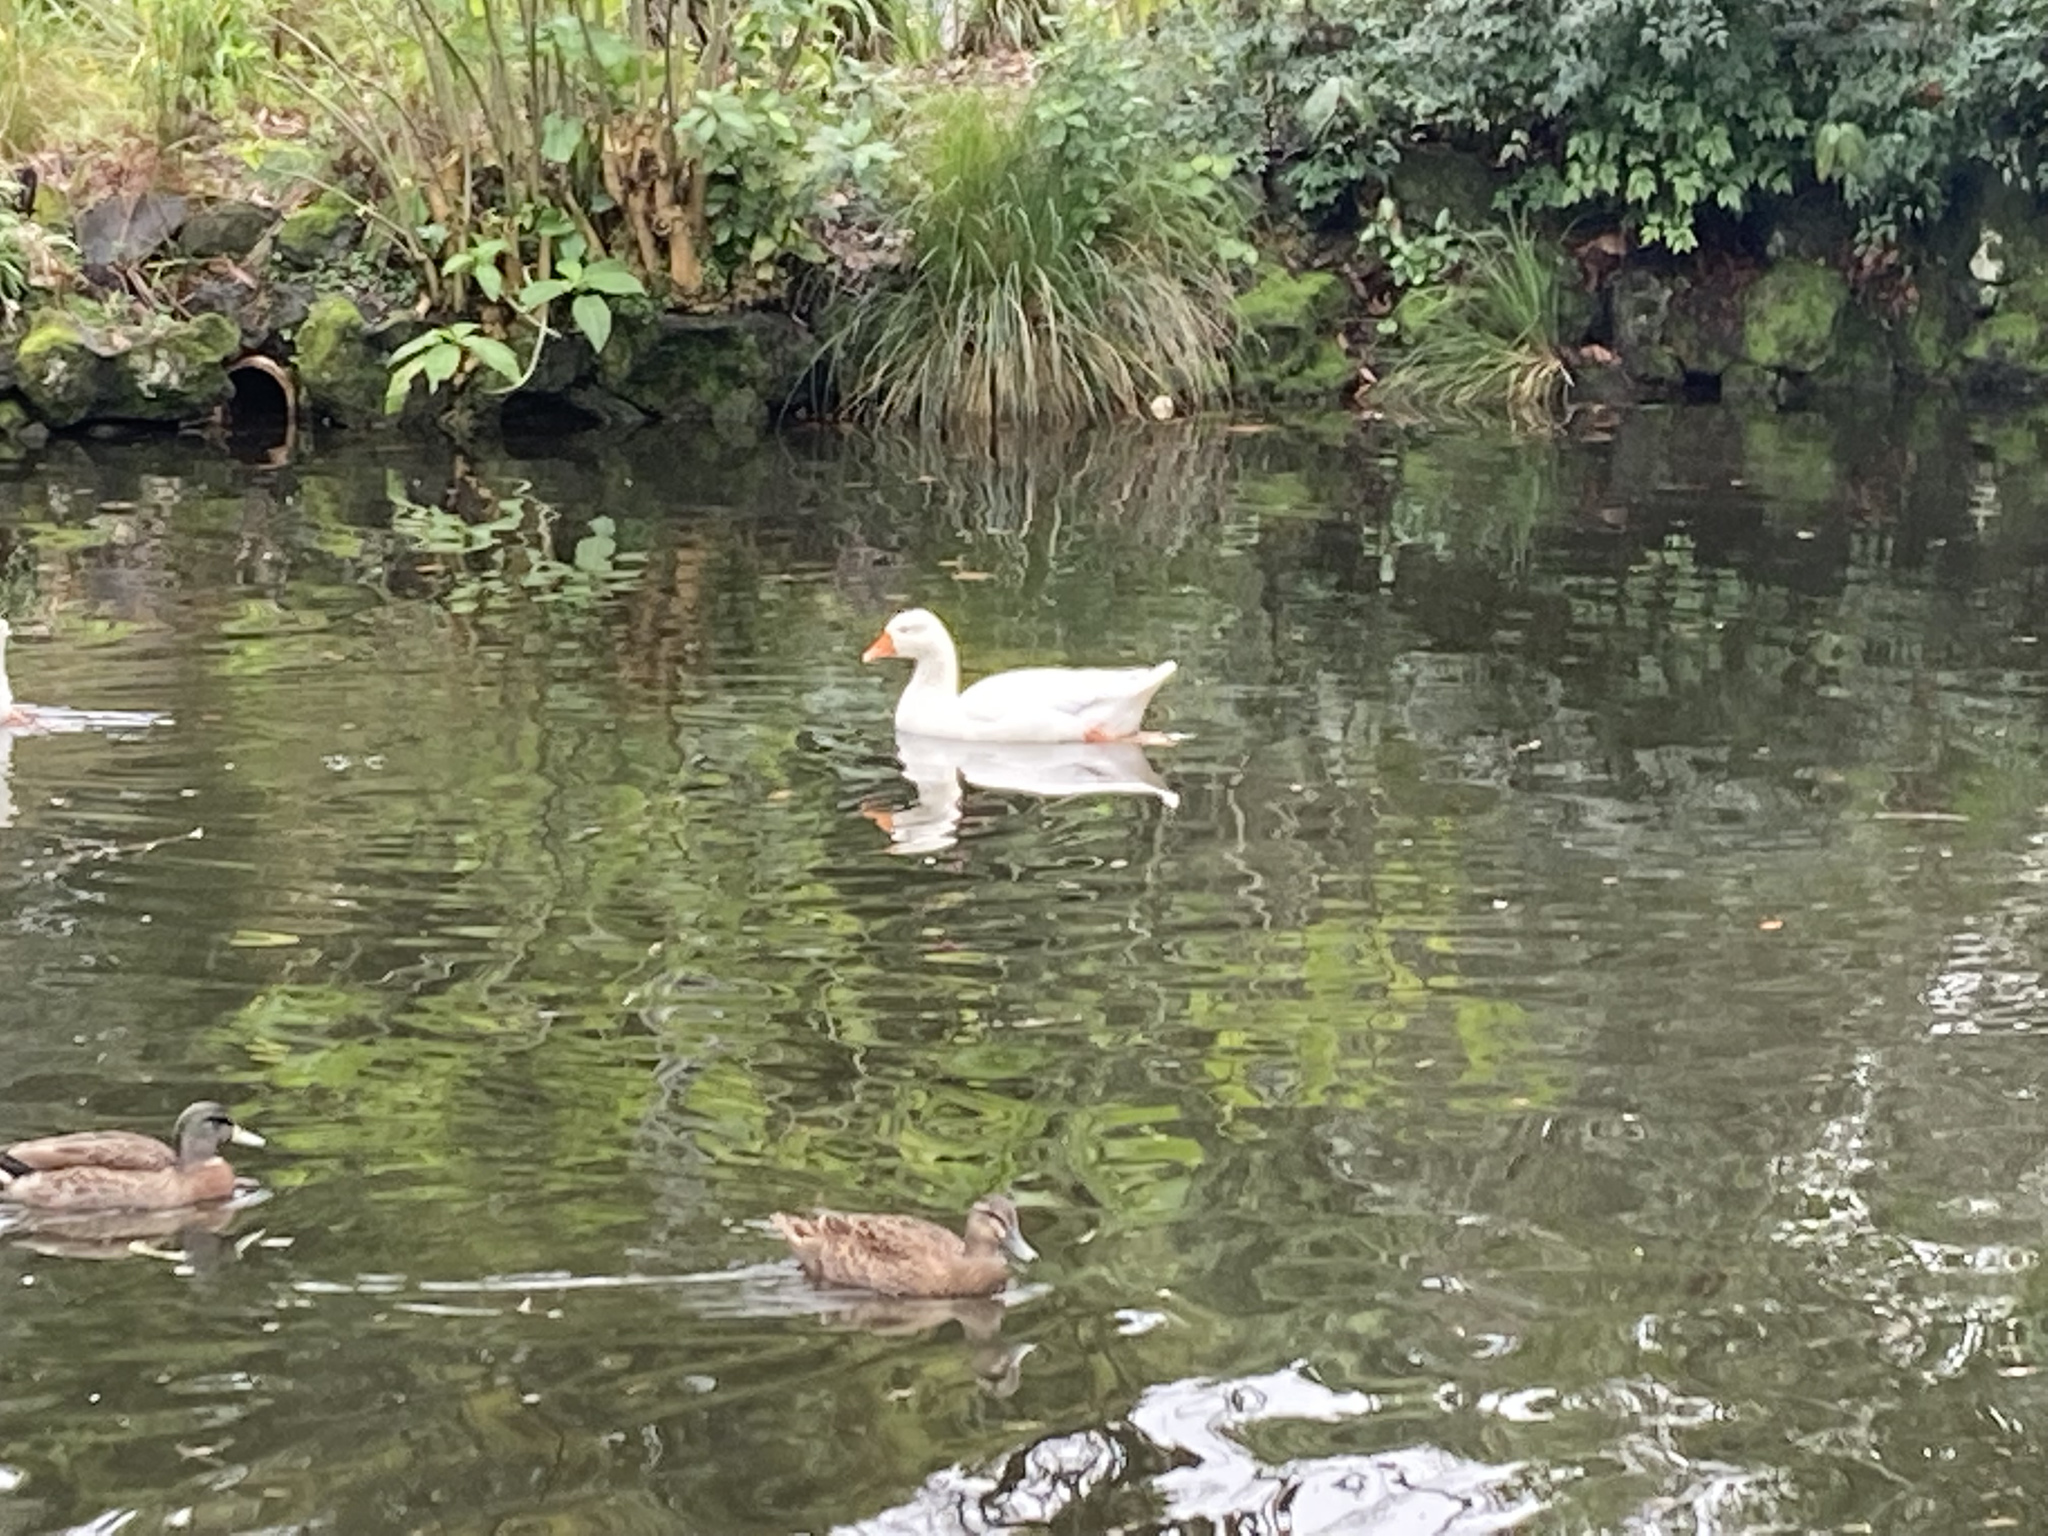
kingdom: Animalia
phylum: Chordata
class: Aves
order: Anseriformes
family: Anatidae
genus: Anser
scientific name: Anser anser
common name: Greylag goose
